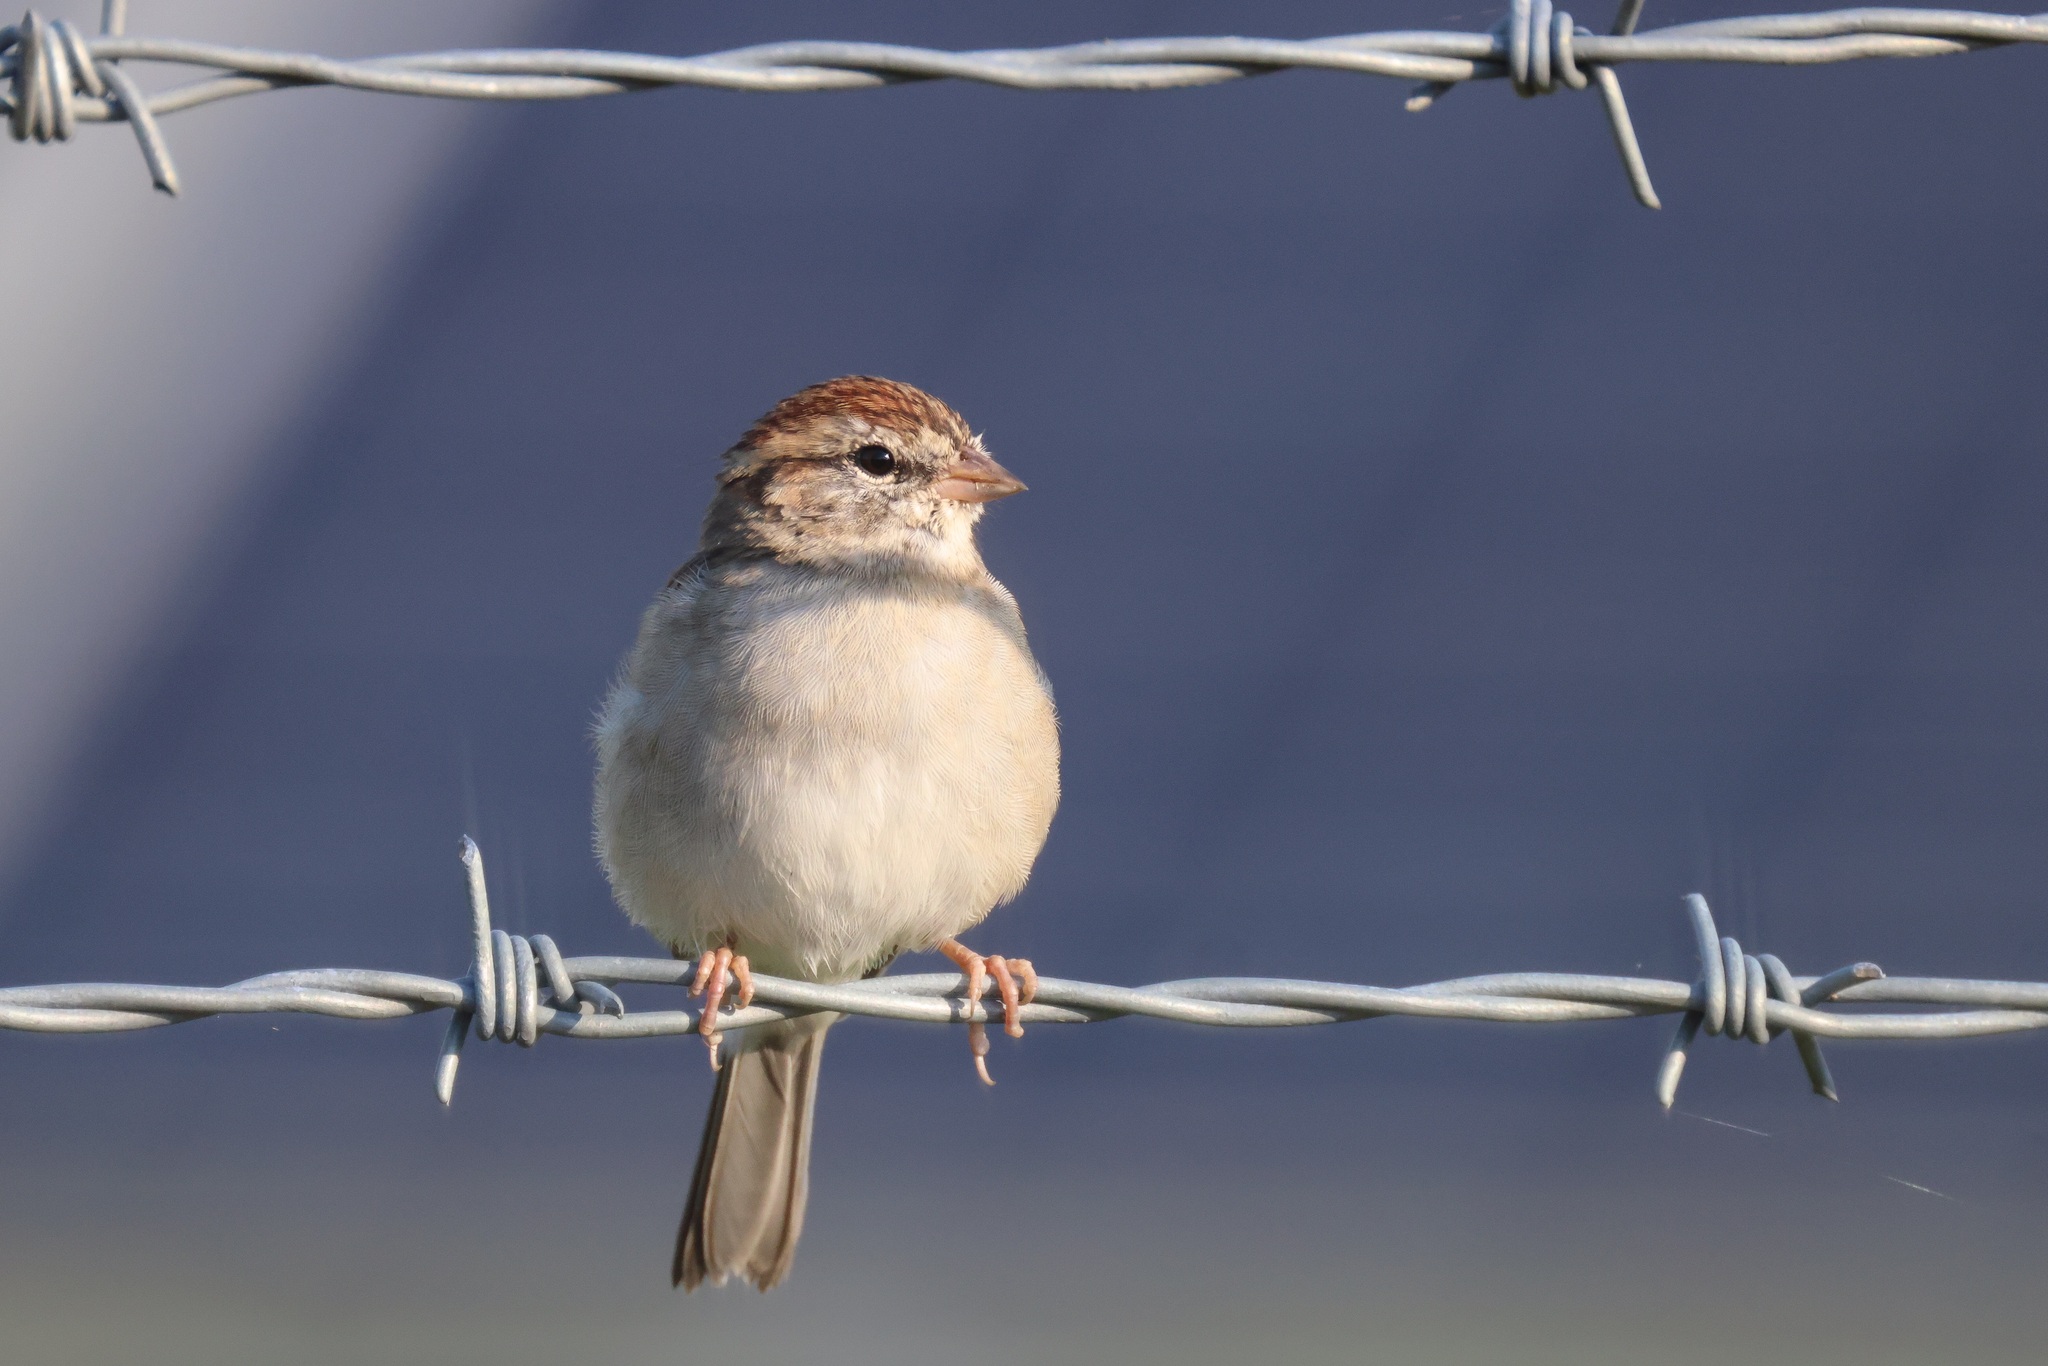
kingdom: Animalia
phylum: Chordata
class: Aves
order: Passeriformes
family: Passerellidae
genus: Spizella
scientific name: Spizella passerina
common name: Chipping sparrow
